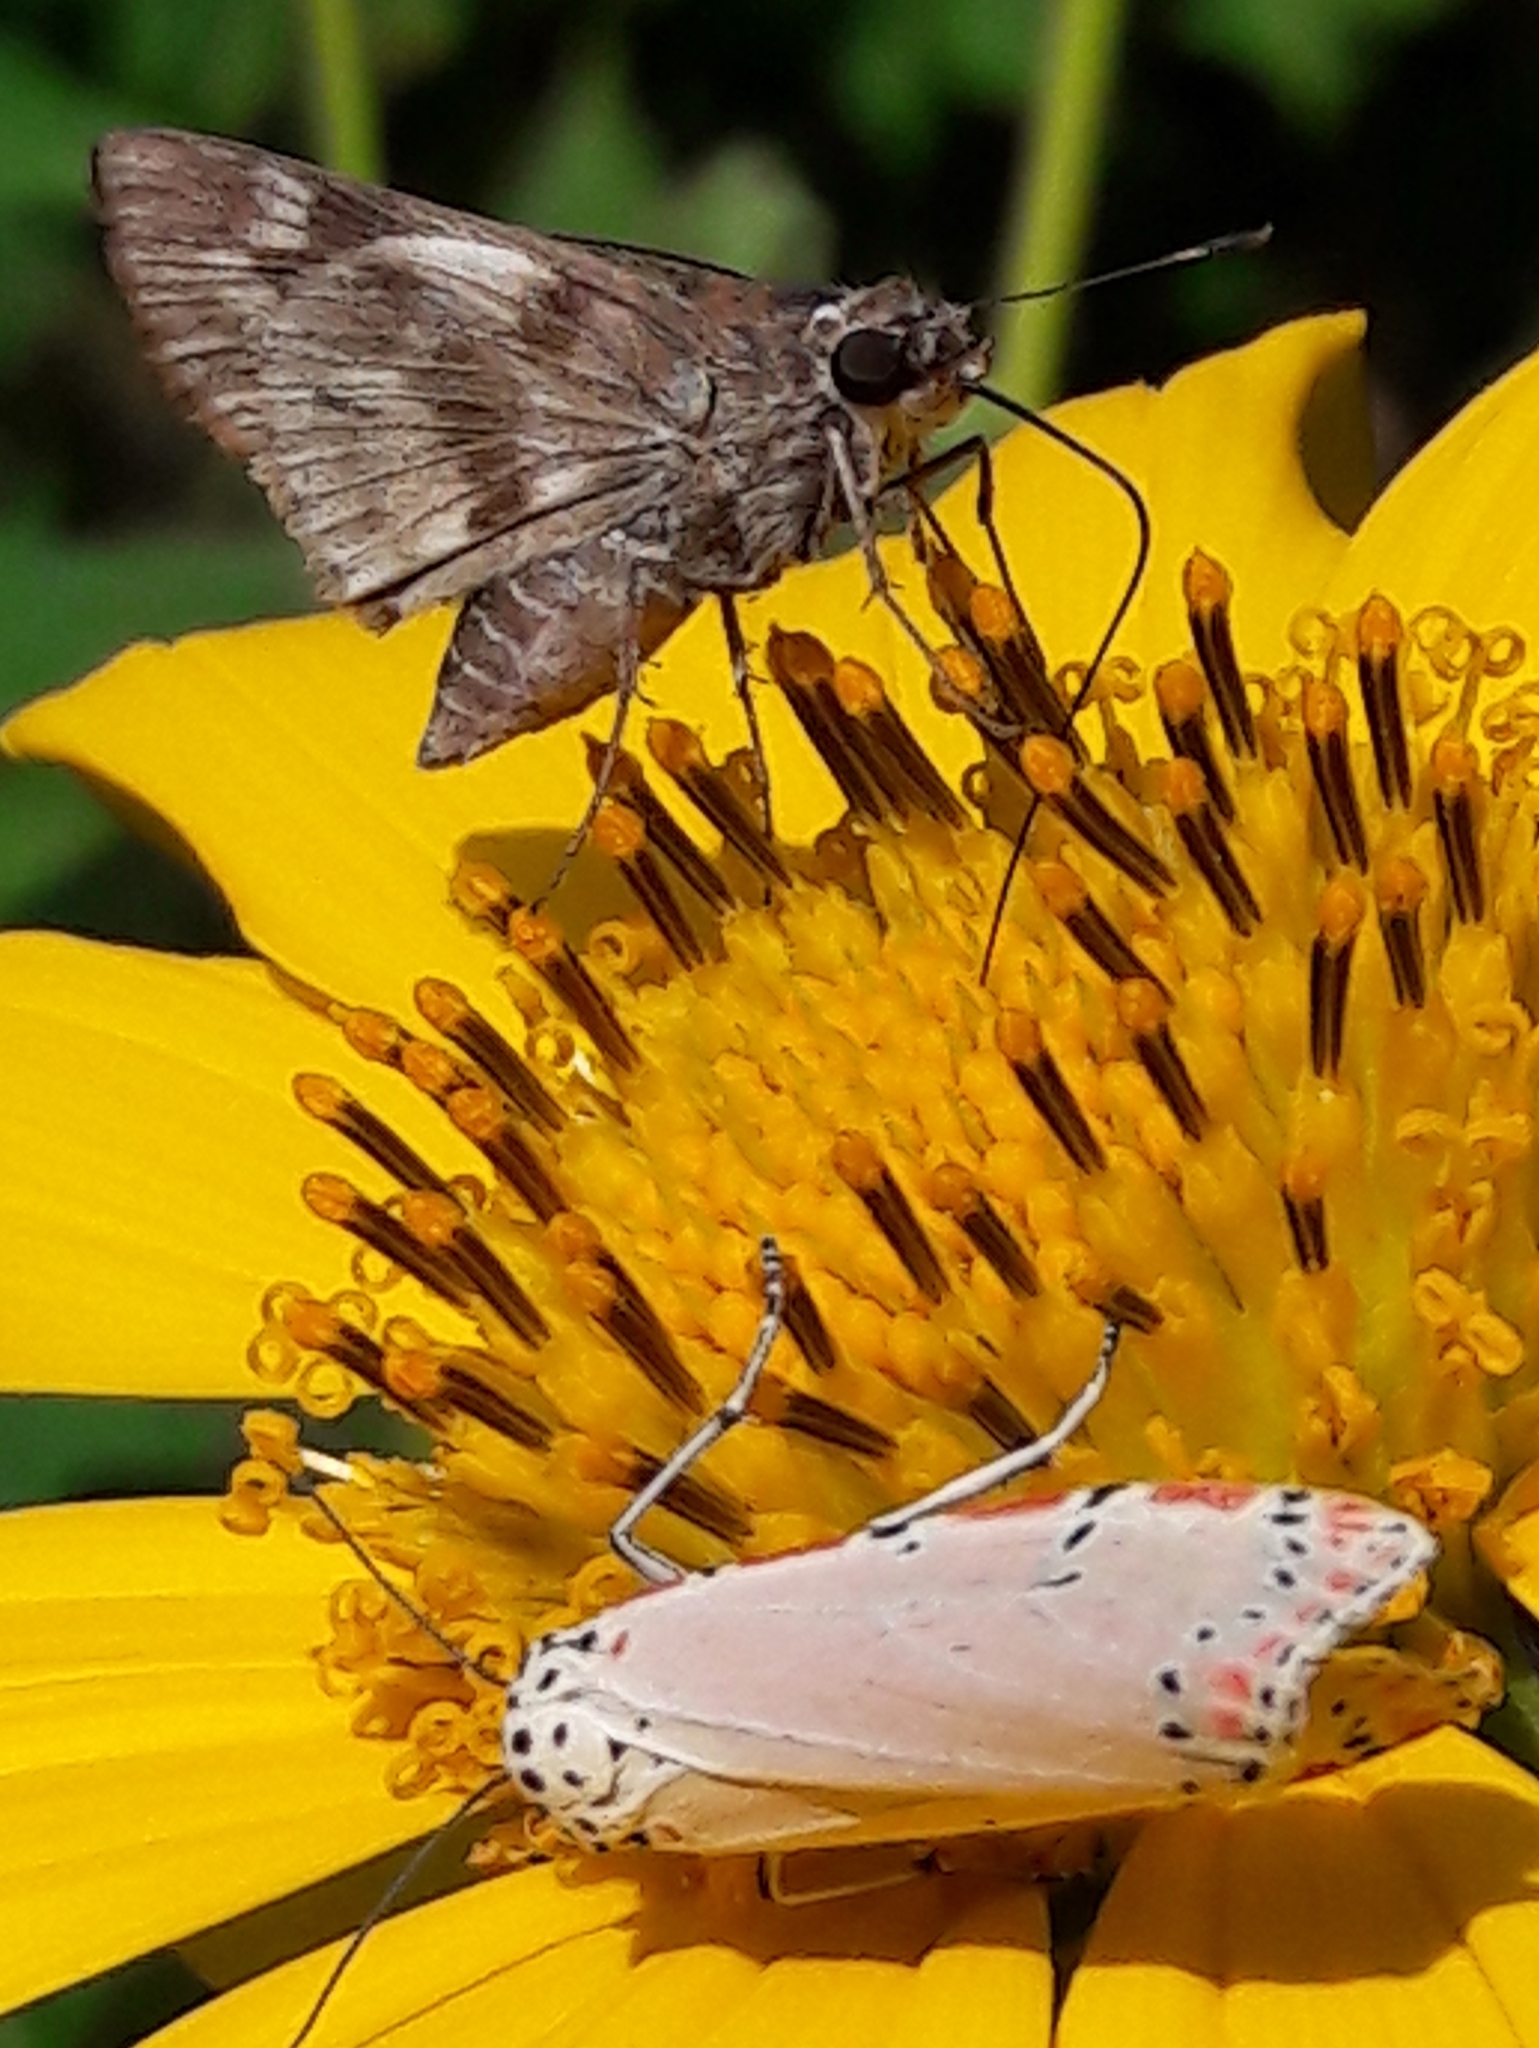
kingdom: Animalia
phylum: Arthropoda
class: Insecta
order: Lepidoptera
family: Erebidae
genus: Utetheisa
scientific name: Utetheisa ornatrix
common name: Beautiful utetheisa
